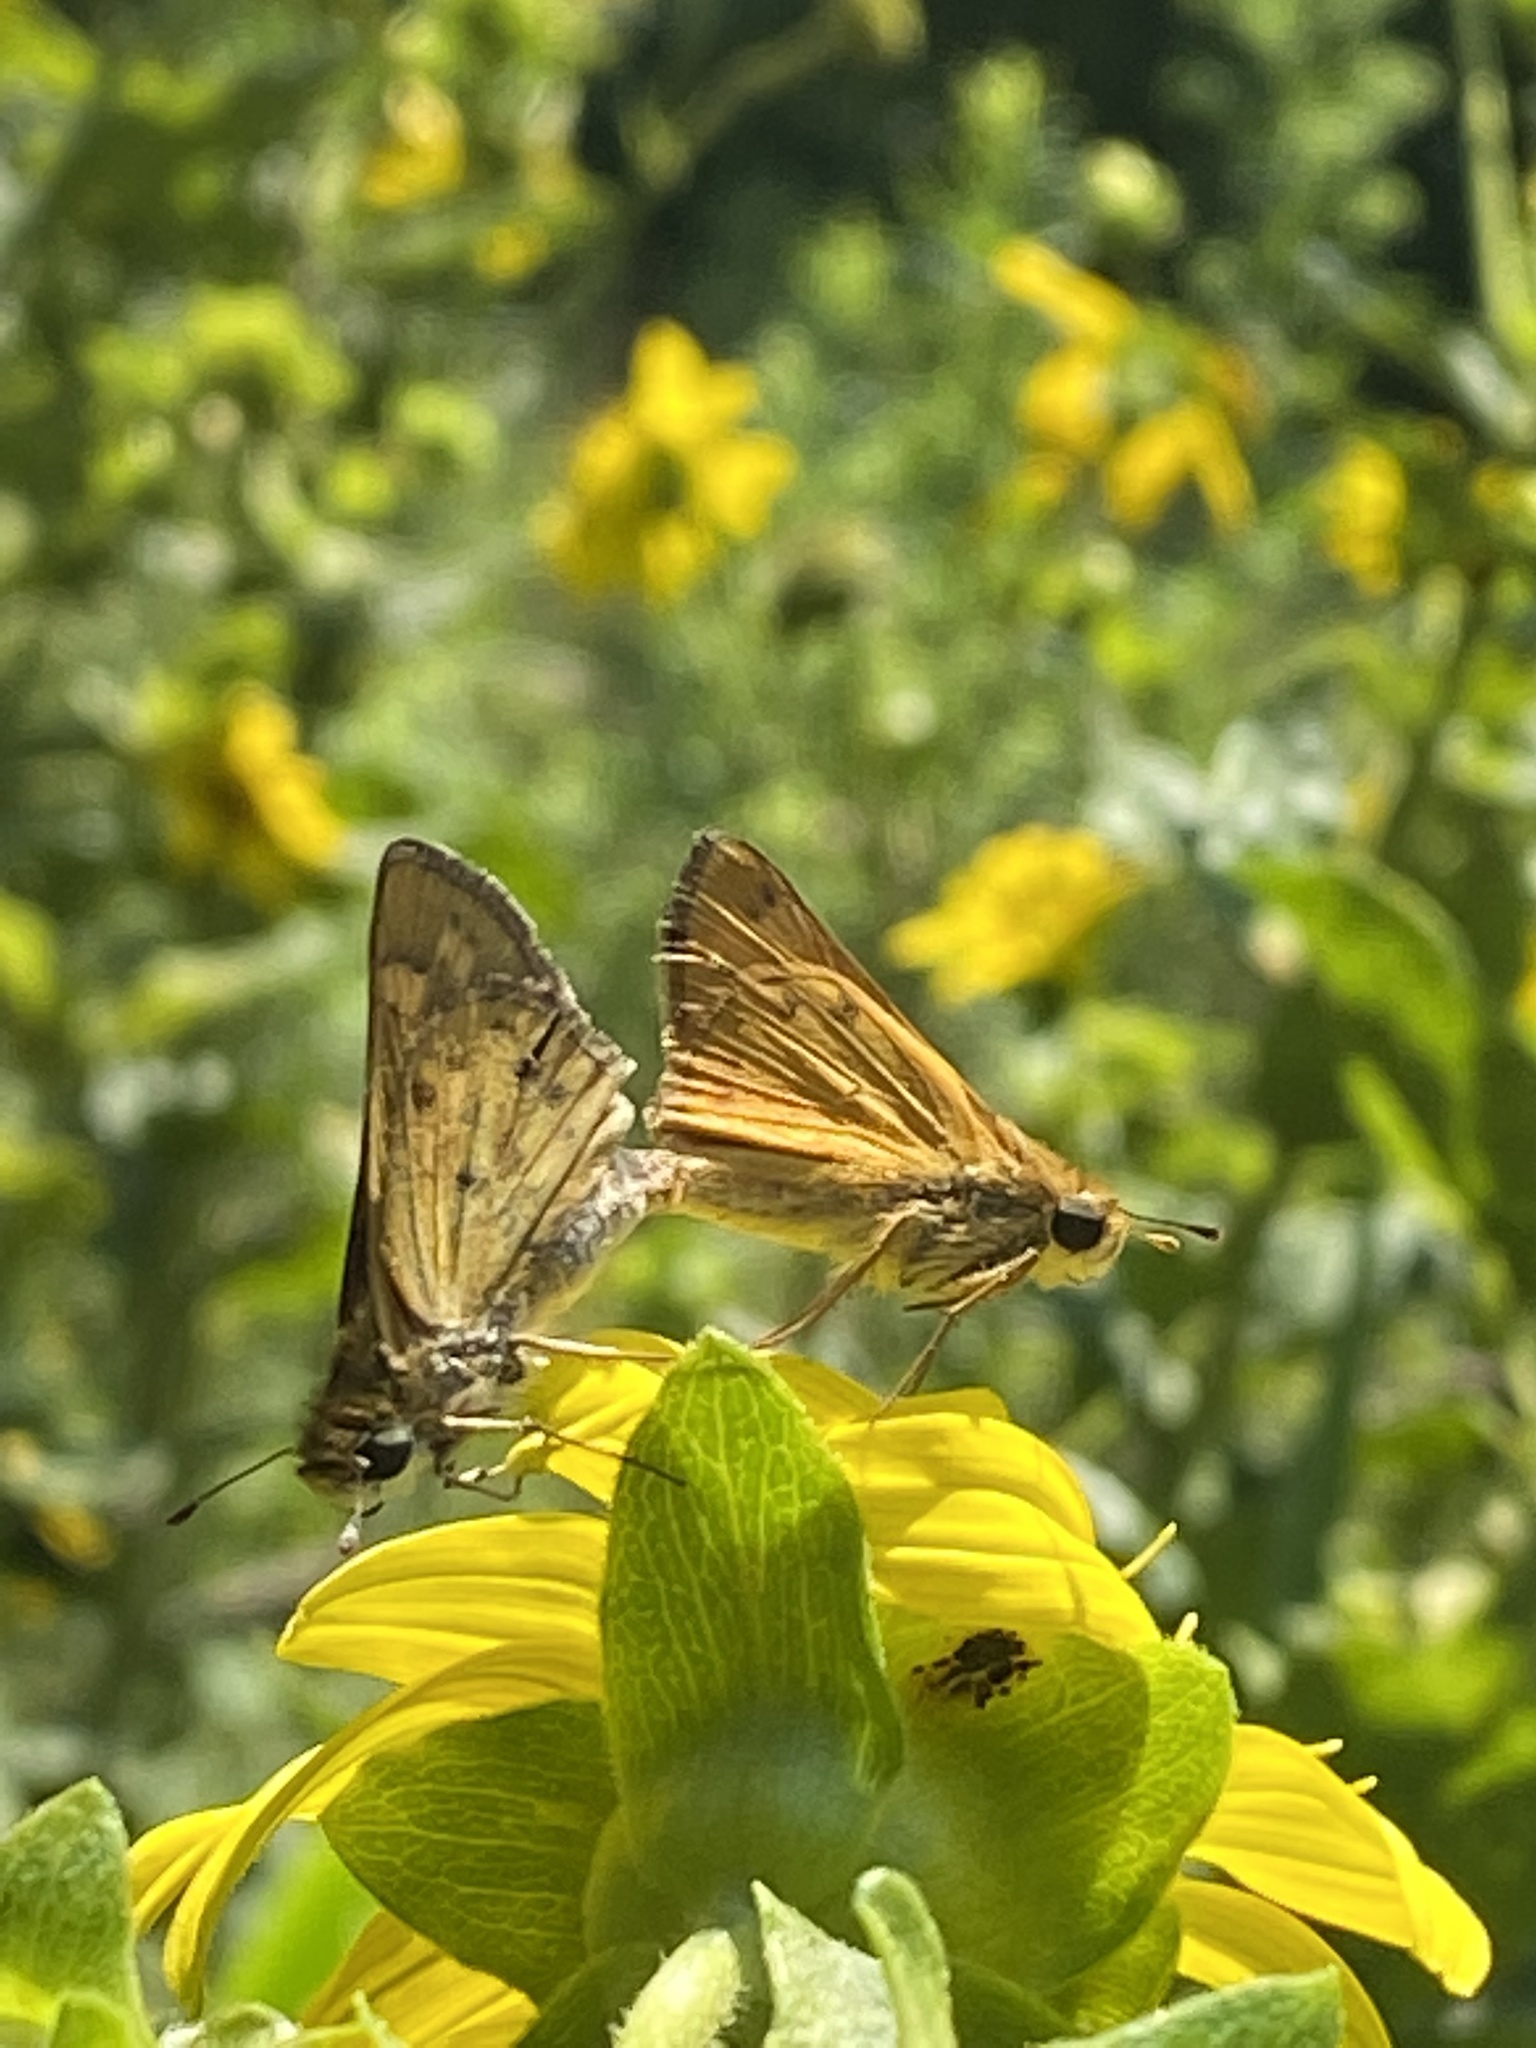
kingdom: Animalia
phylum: Arthropoda
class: Insecta
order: Lepidoptera
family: Hesperiidae
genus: Hylephila
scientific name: Hylephila phyleus
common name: Fiery skipper
